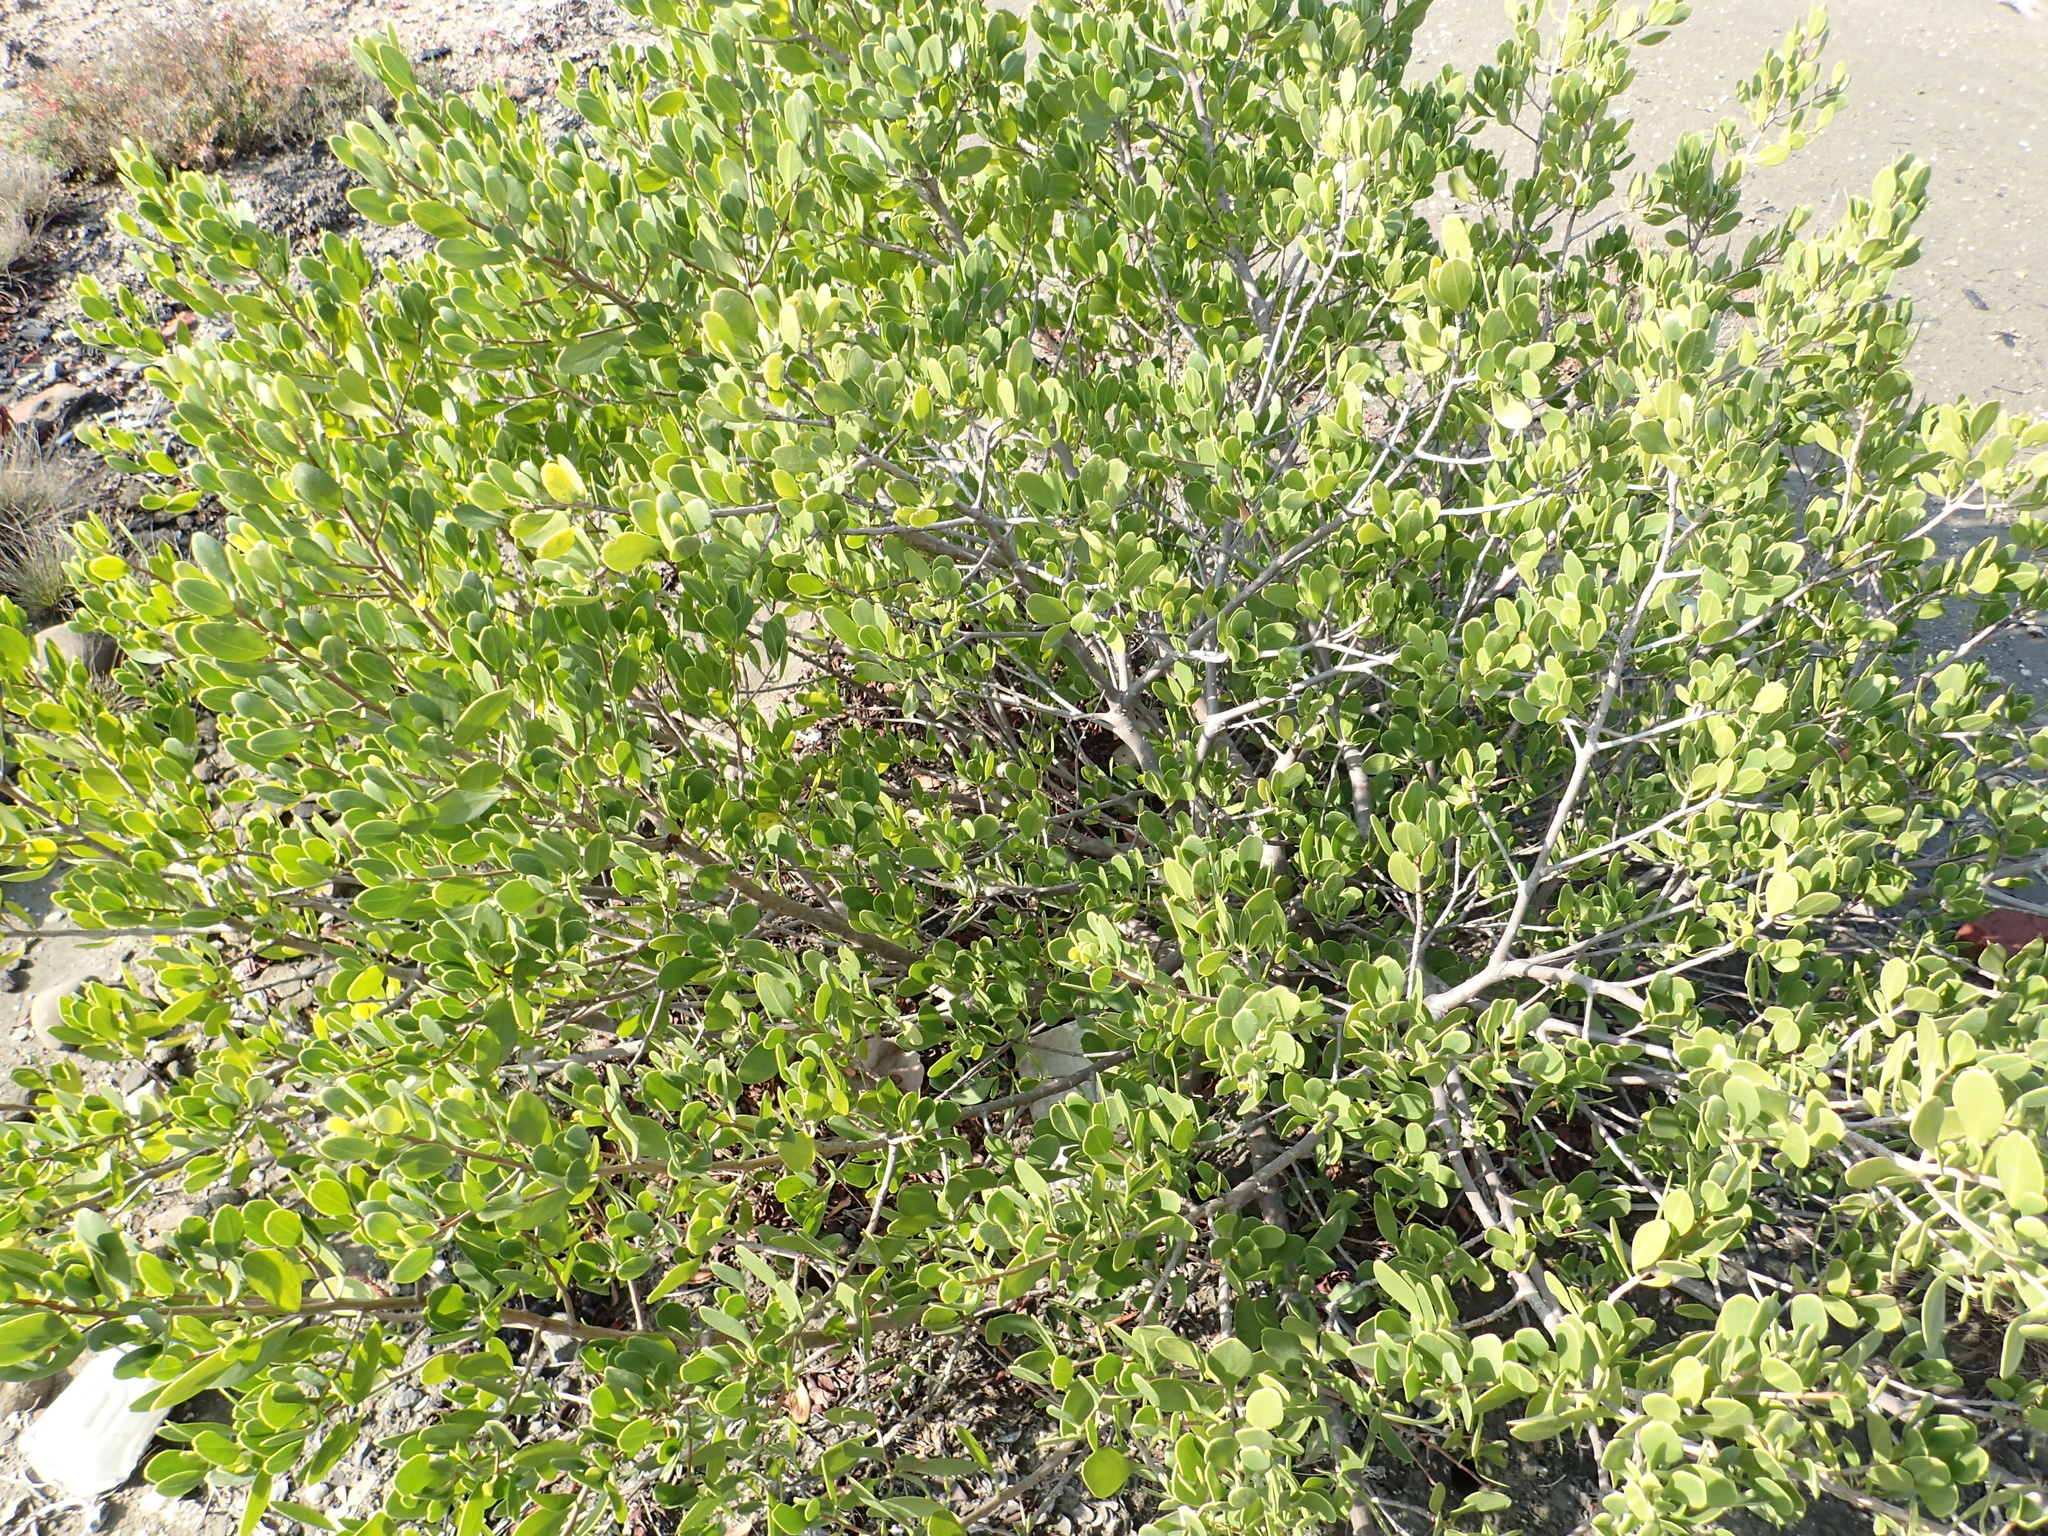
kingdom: Plantae
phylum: Tracheophyta
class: Magnoliopsida
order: Myrtales
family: Combretaceae
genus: Lumnitzera
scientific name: Lumnitzera racemosa
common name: White-flowered black mangrove
